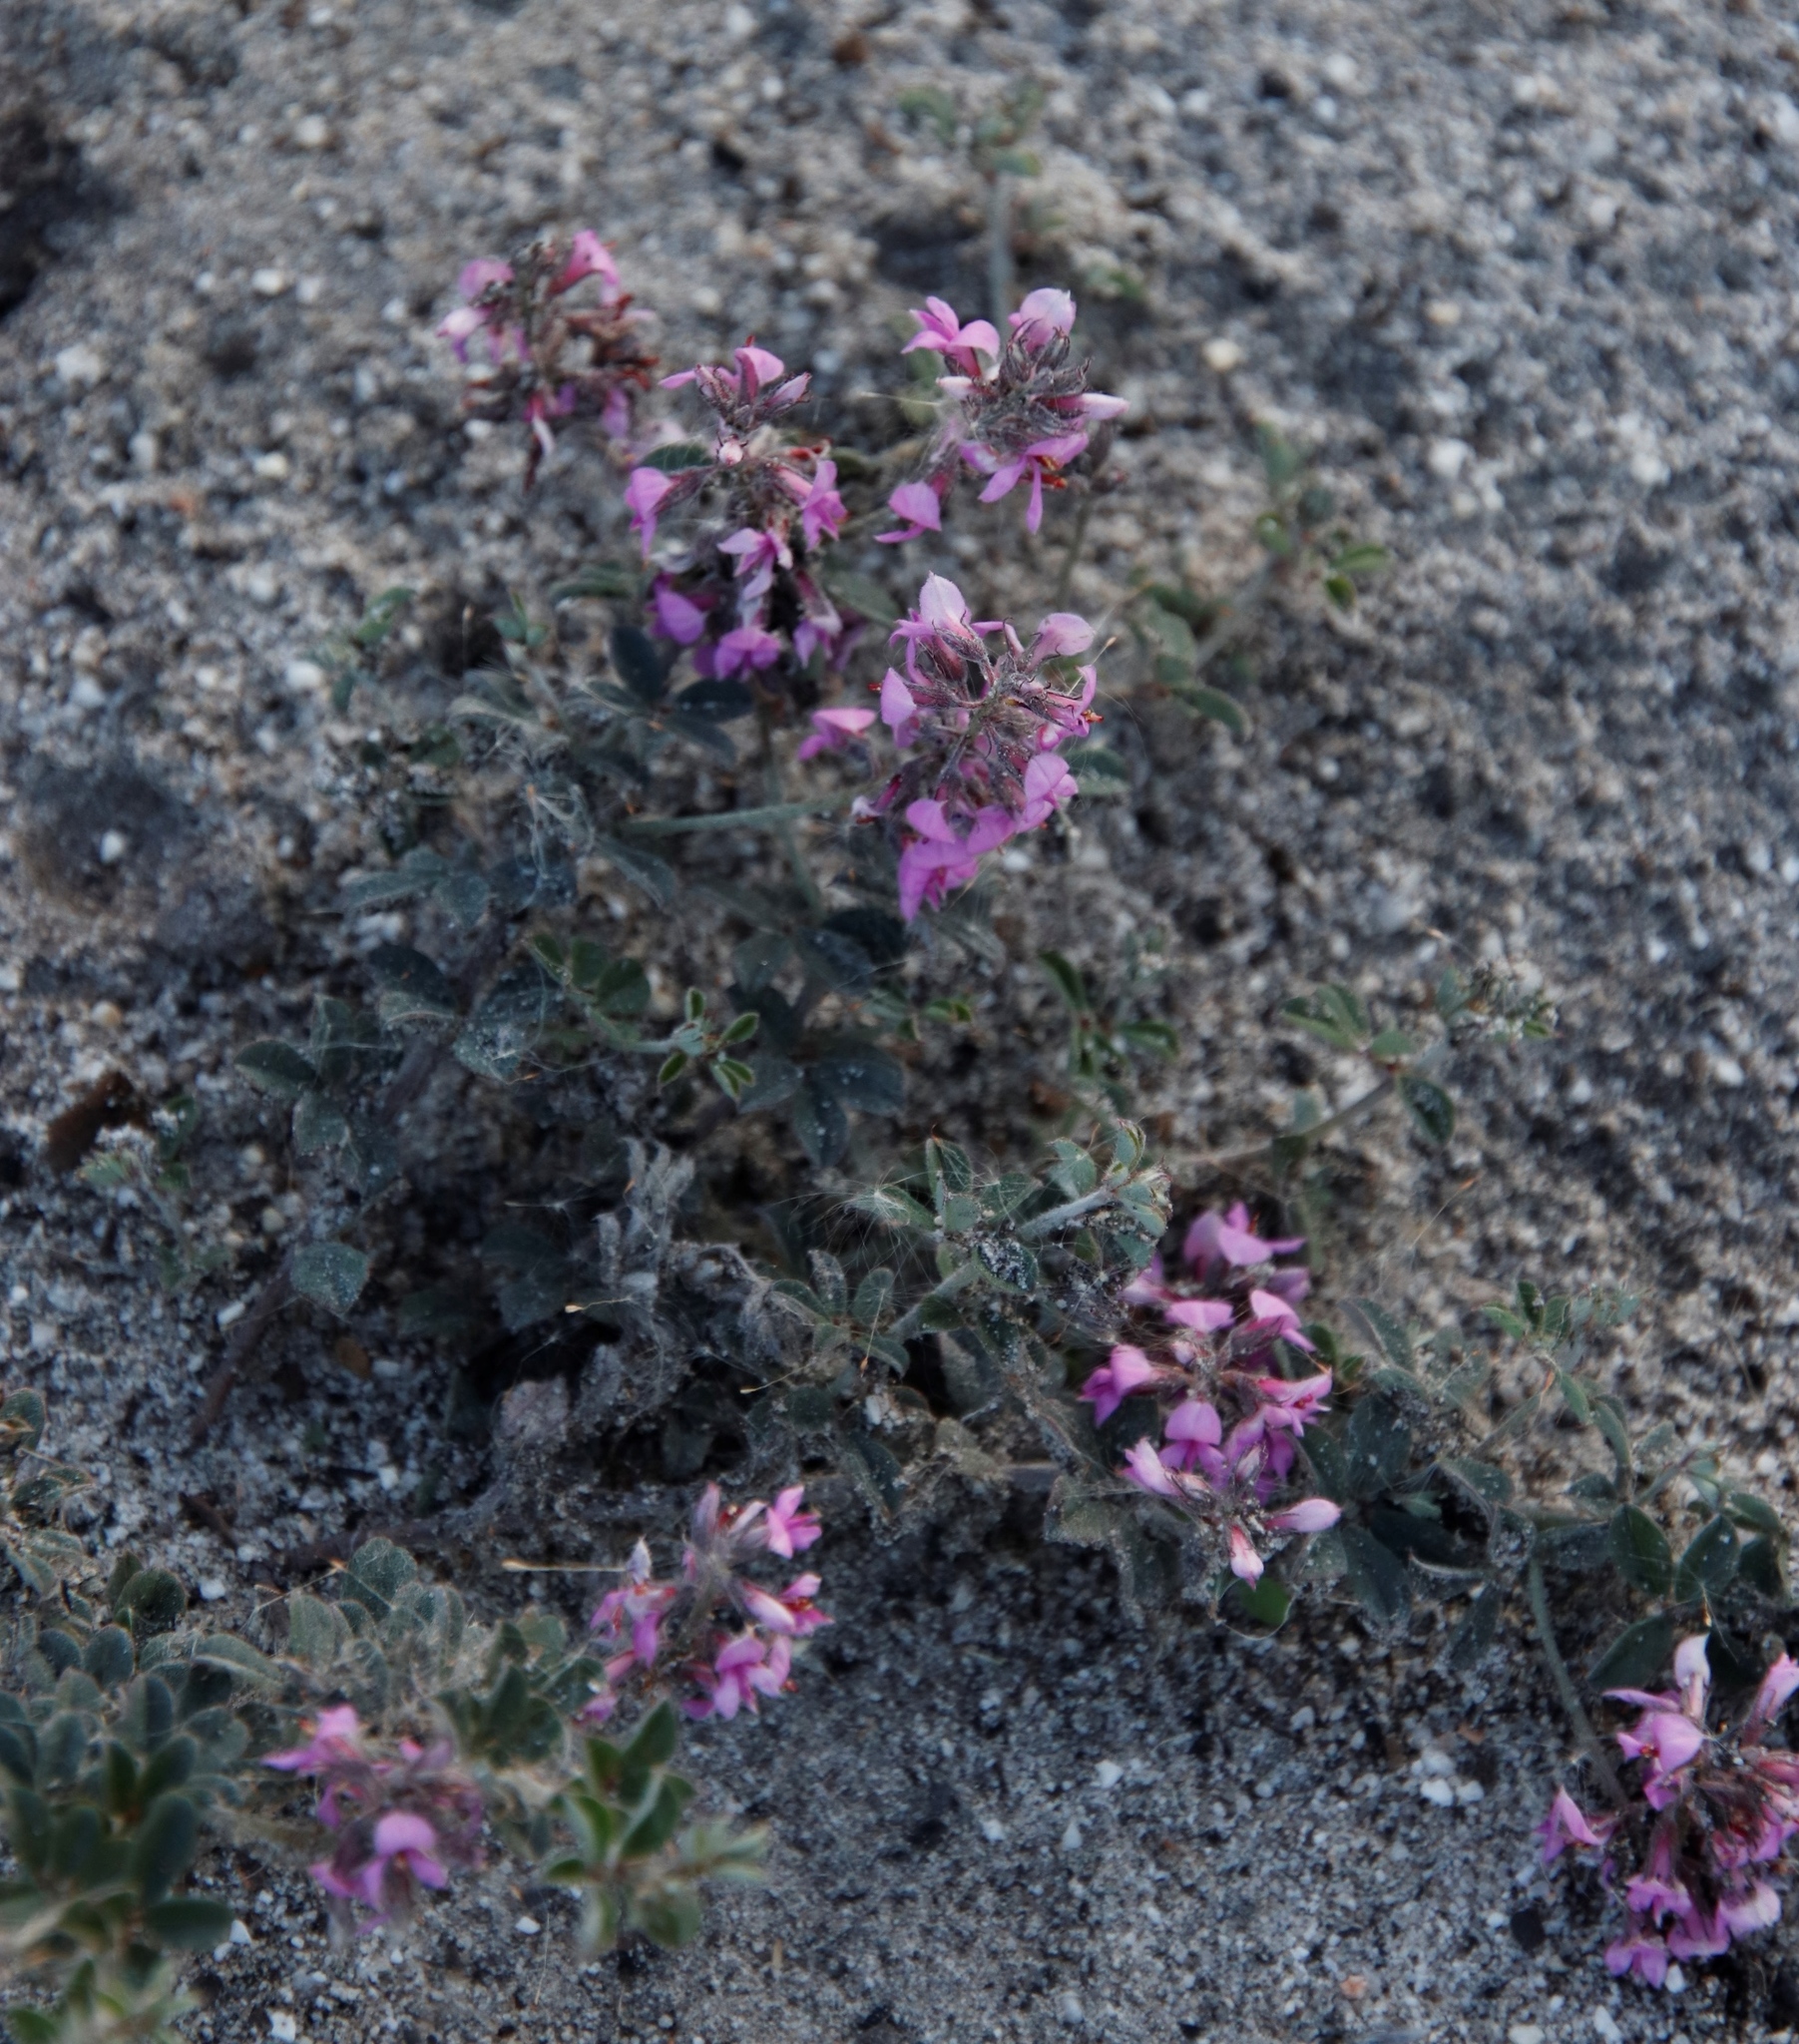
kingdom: Plantae
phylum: Tracheophyta
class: Magnoliopsida
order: Fabales
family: Fabaceae
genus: Indigofera
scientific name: Indigofera mauritanica
